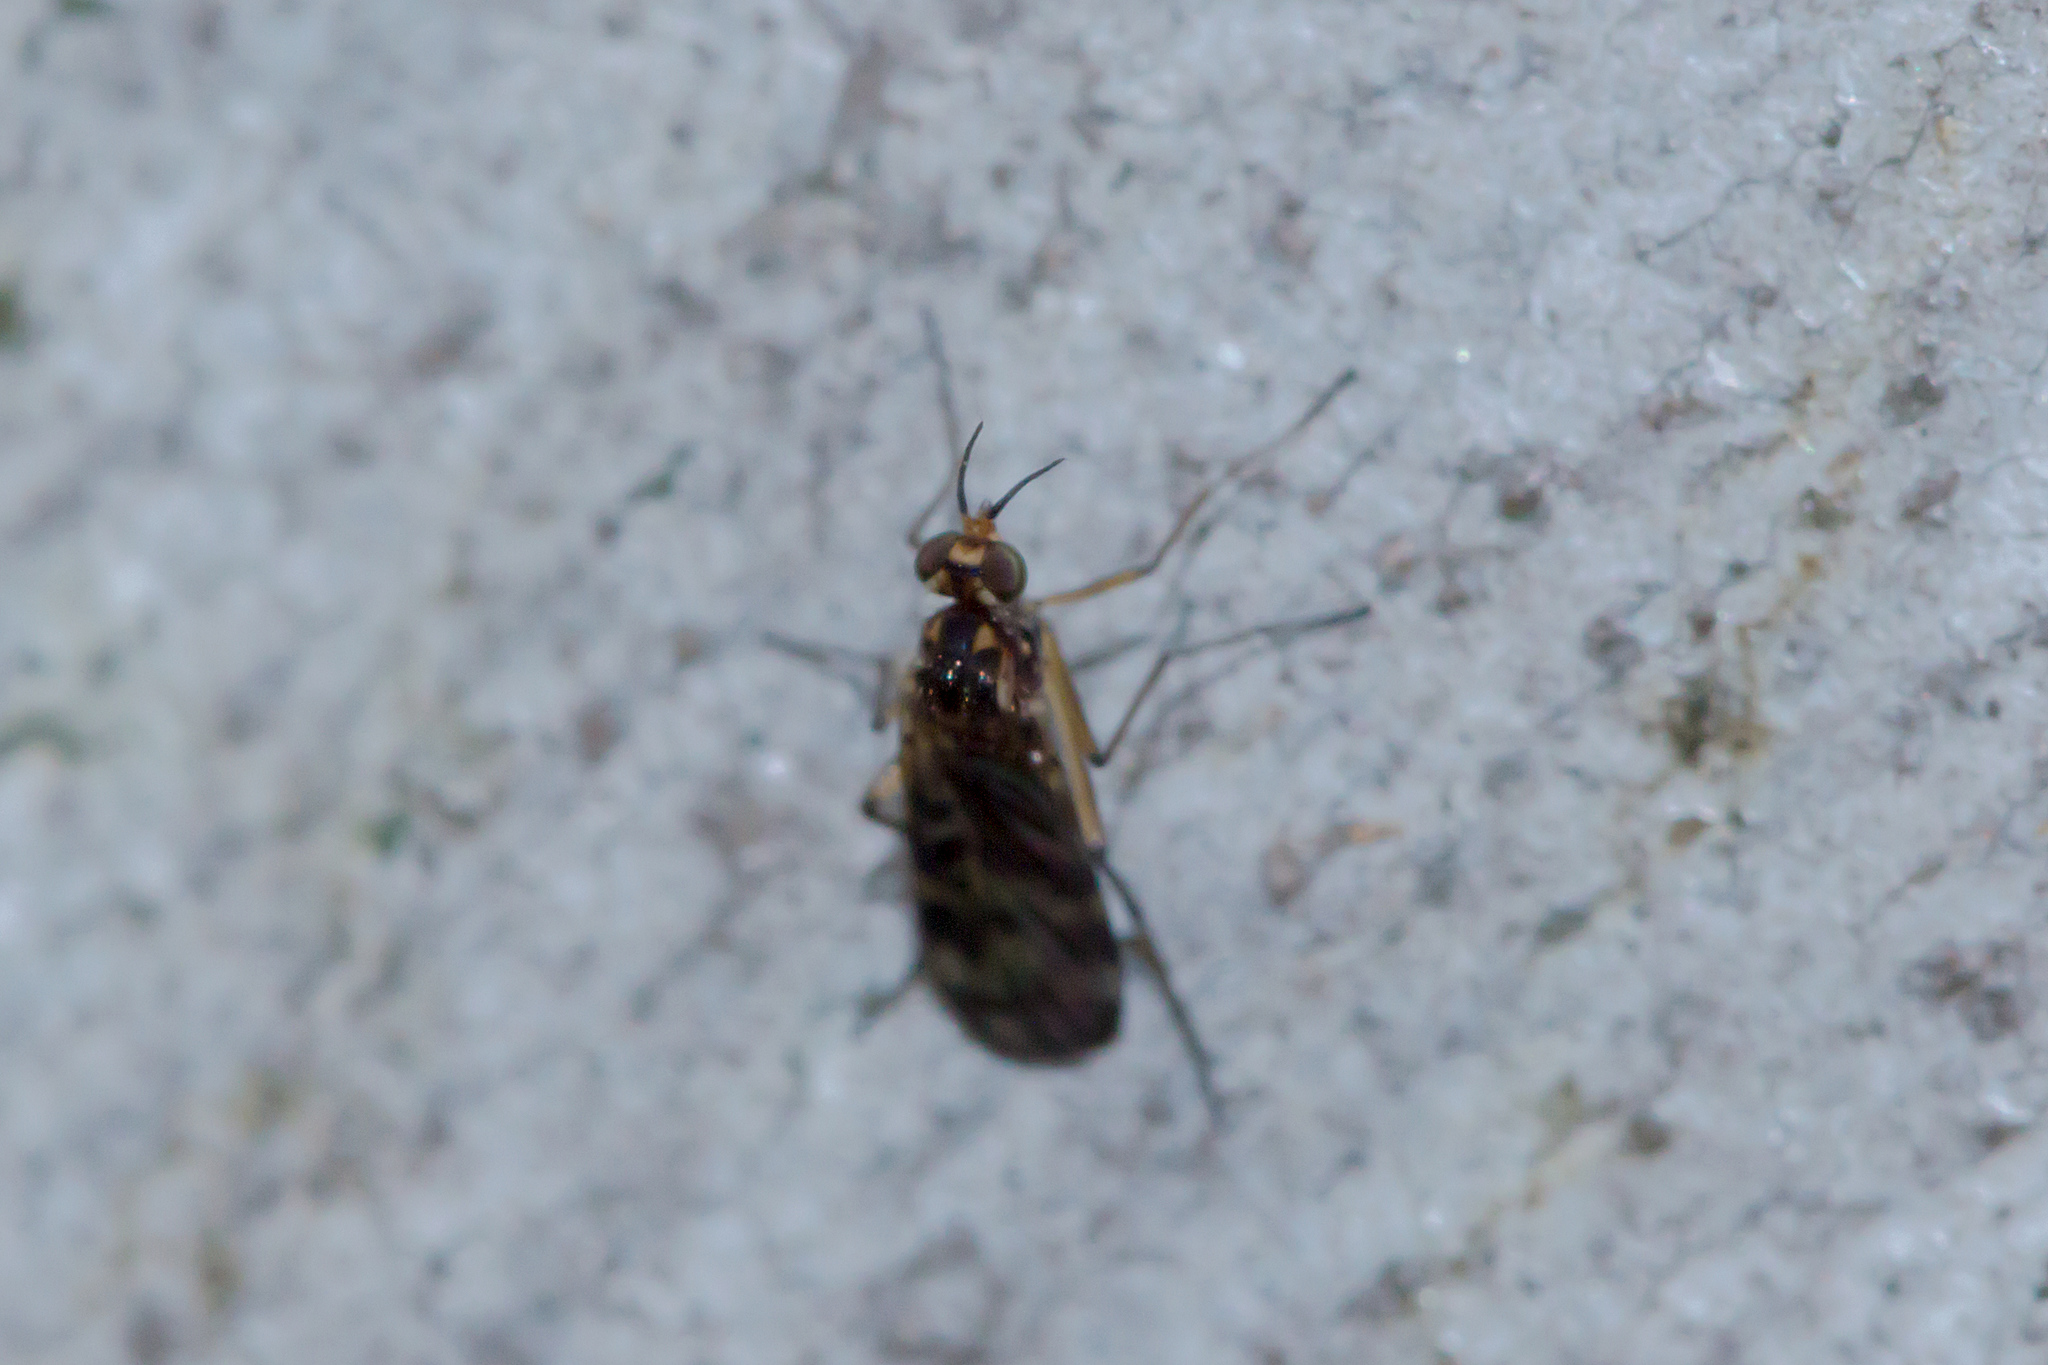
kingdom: Animalia
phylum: Arthropoda
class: Insecta
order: Diptera
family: Anisopodidae
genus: Sylvicola
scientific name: Sylvicola dubius
